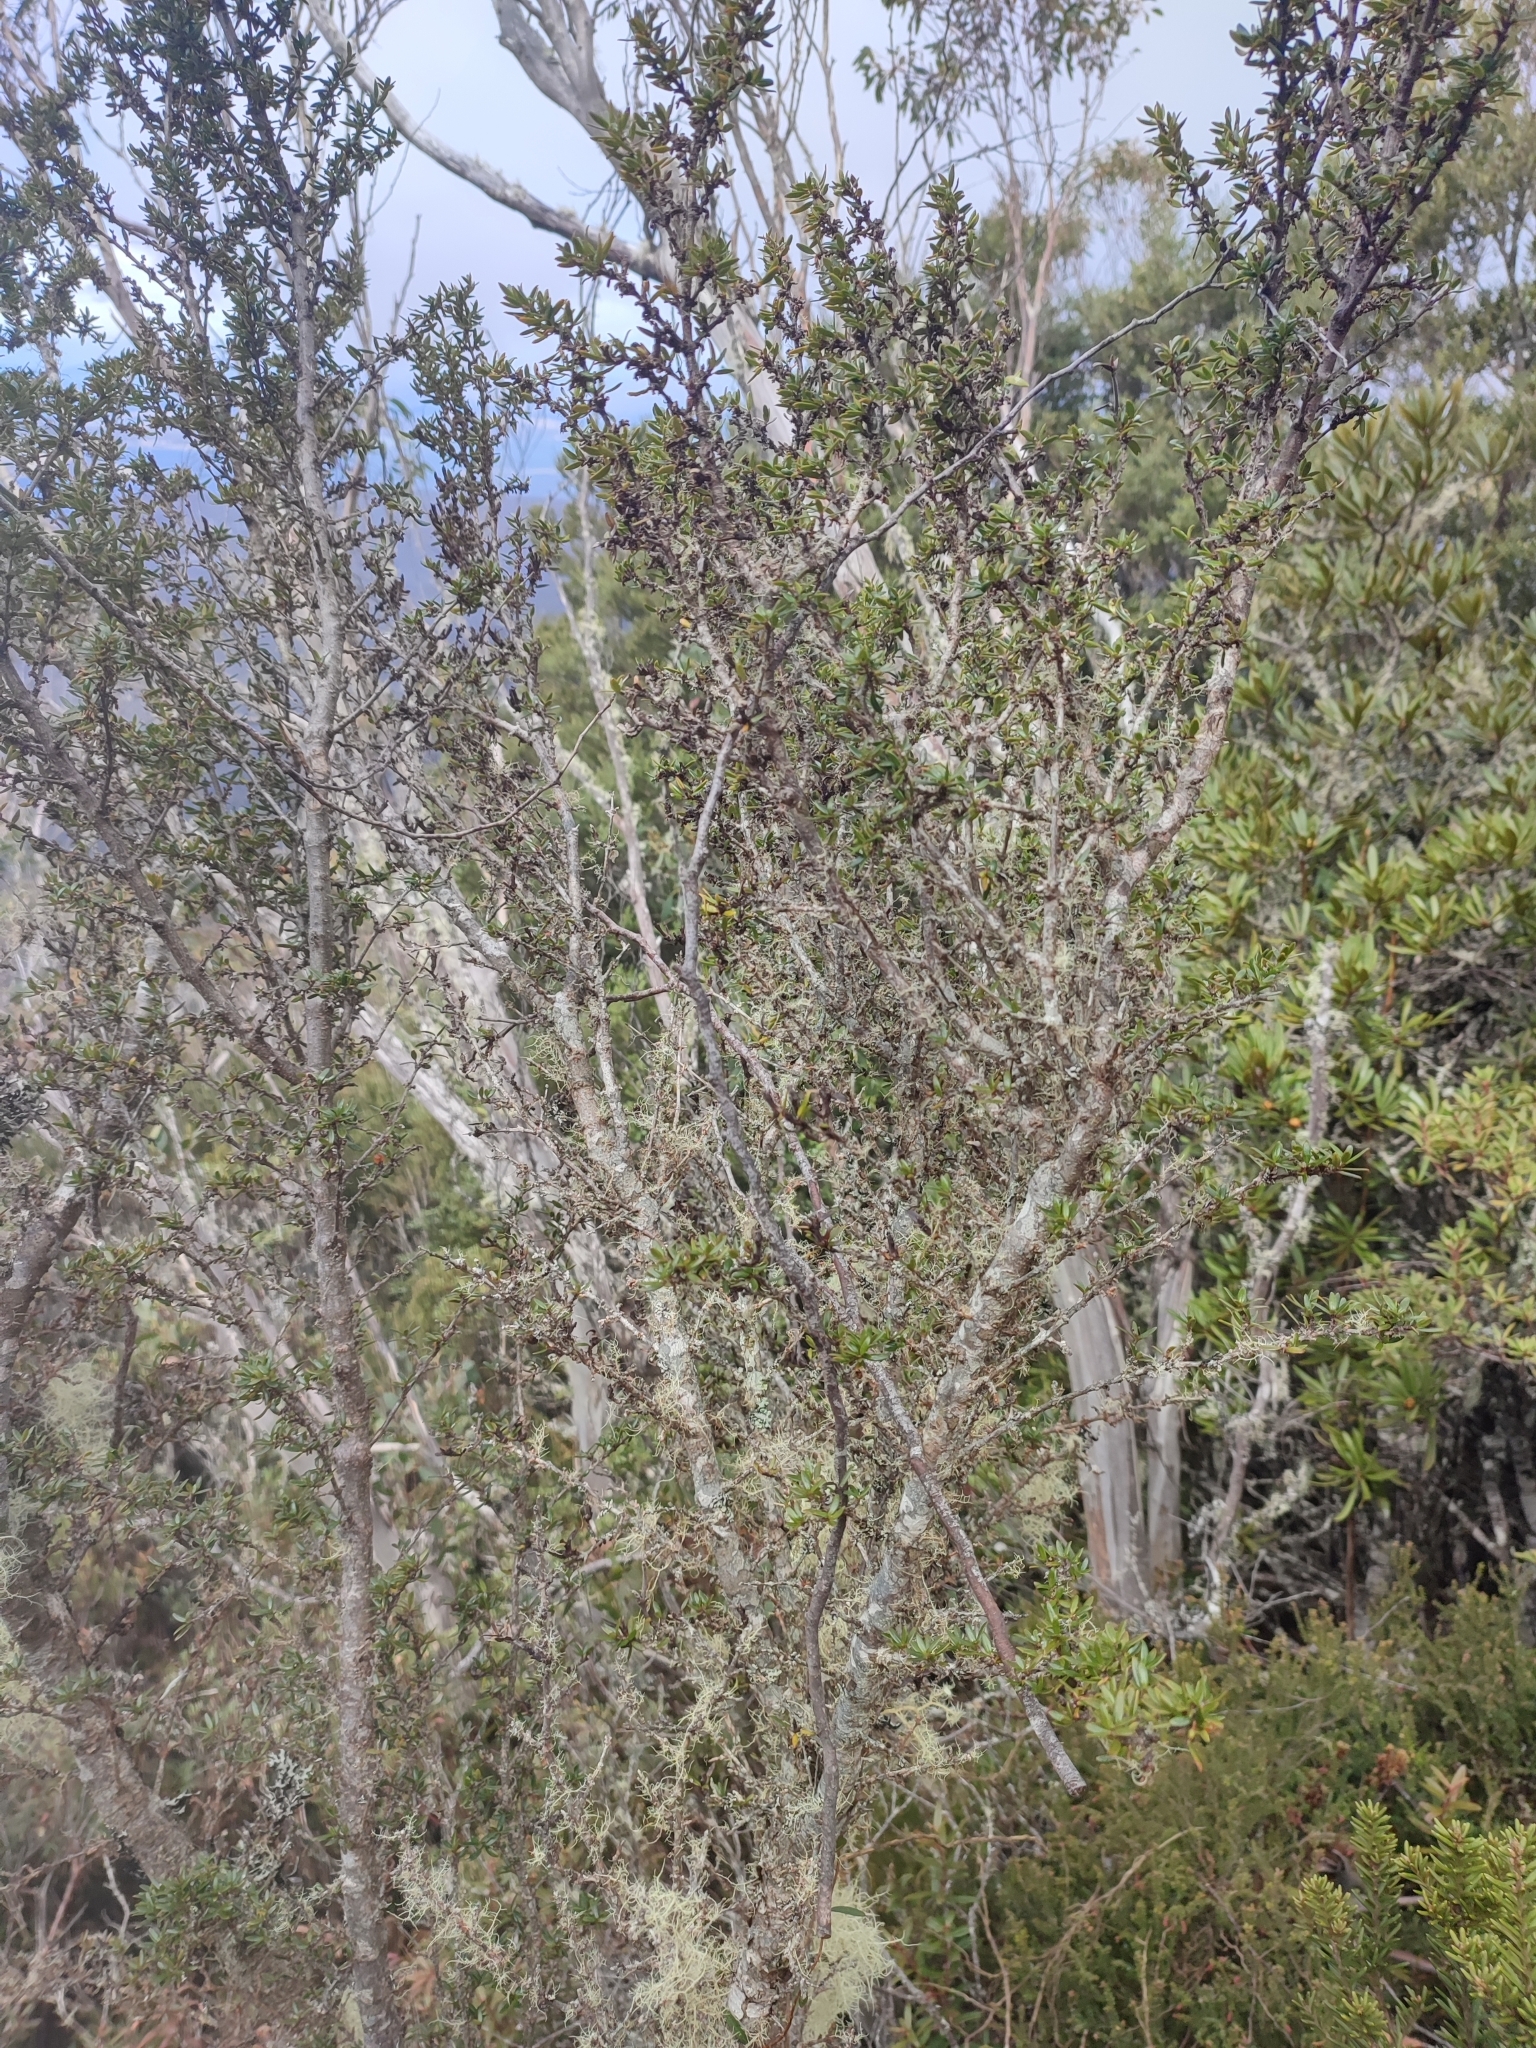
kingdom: Plantae
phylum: Tracheophyta
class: Magnoliopsida
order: Gentianales
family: Rubiaceae
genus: Coprosma
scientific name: Coprosma nitida
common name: Shining coprosma
